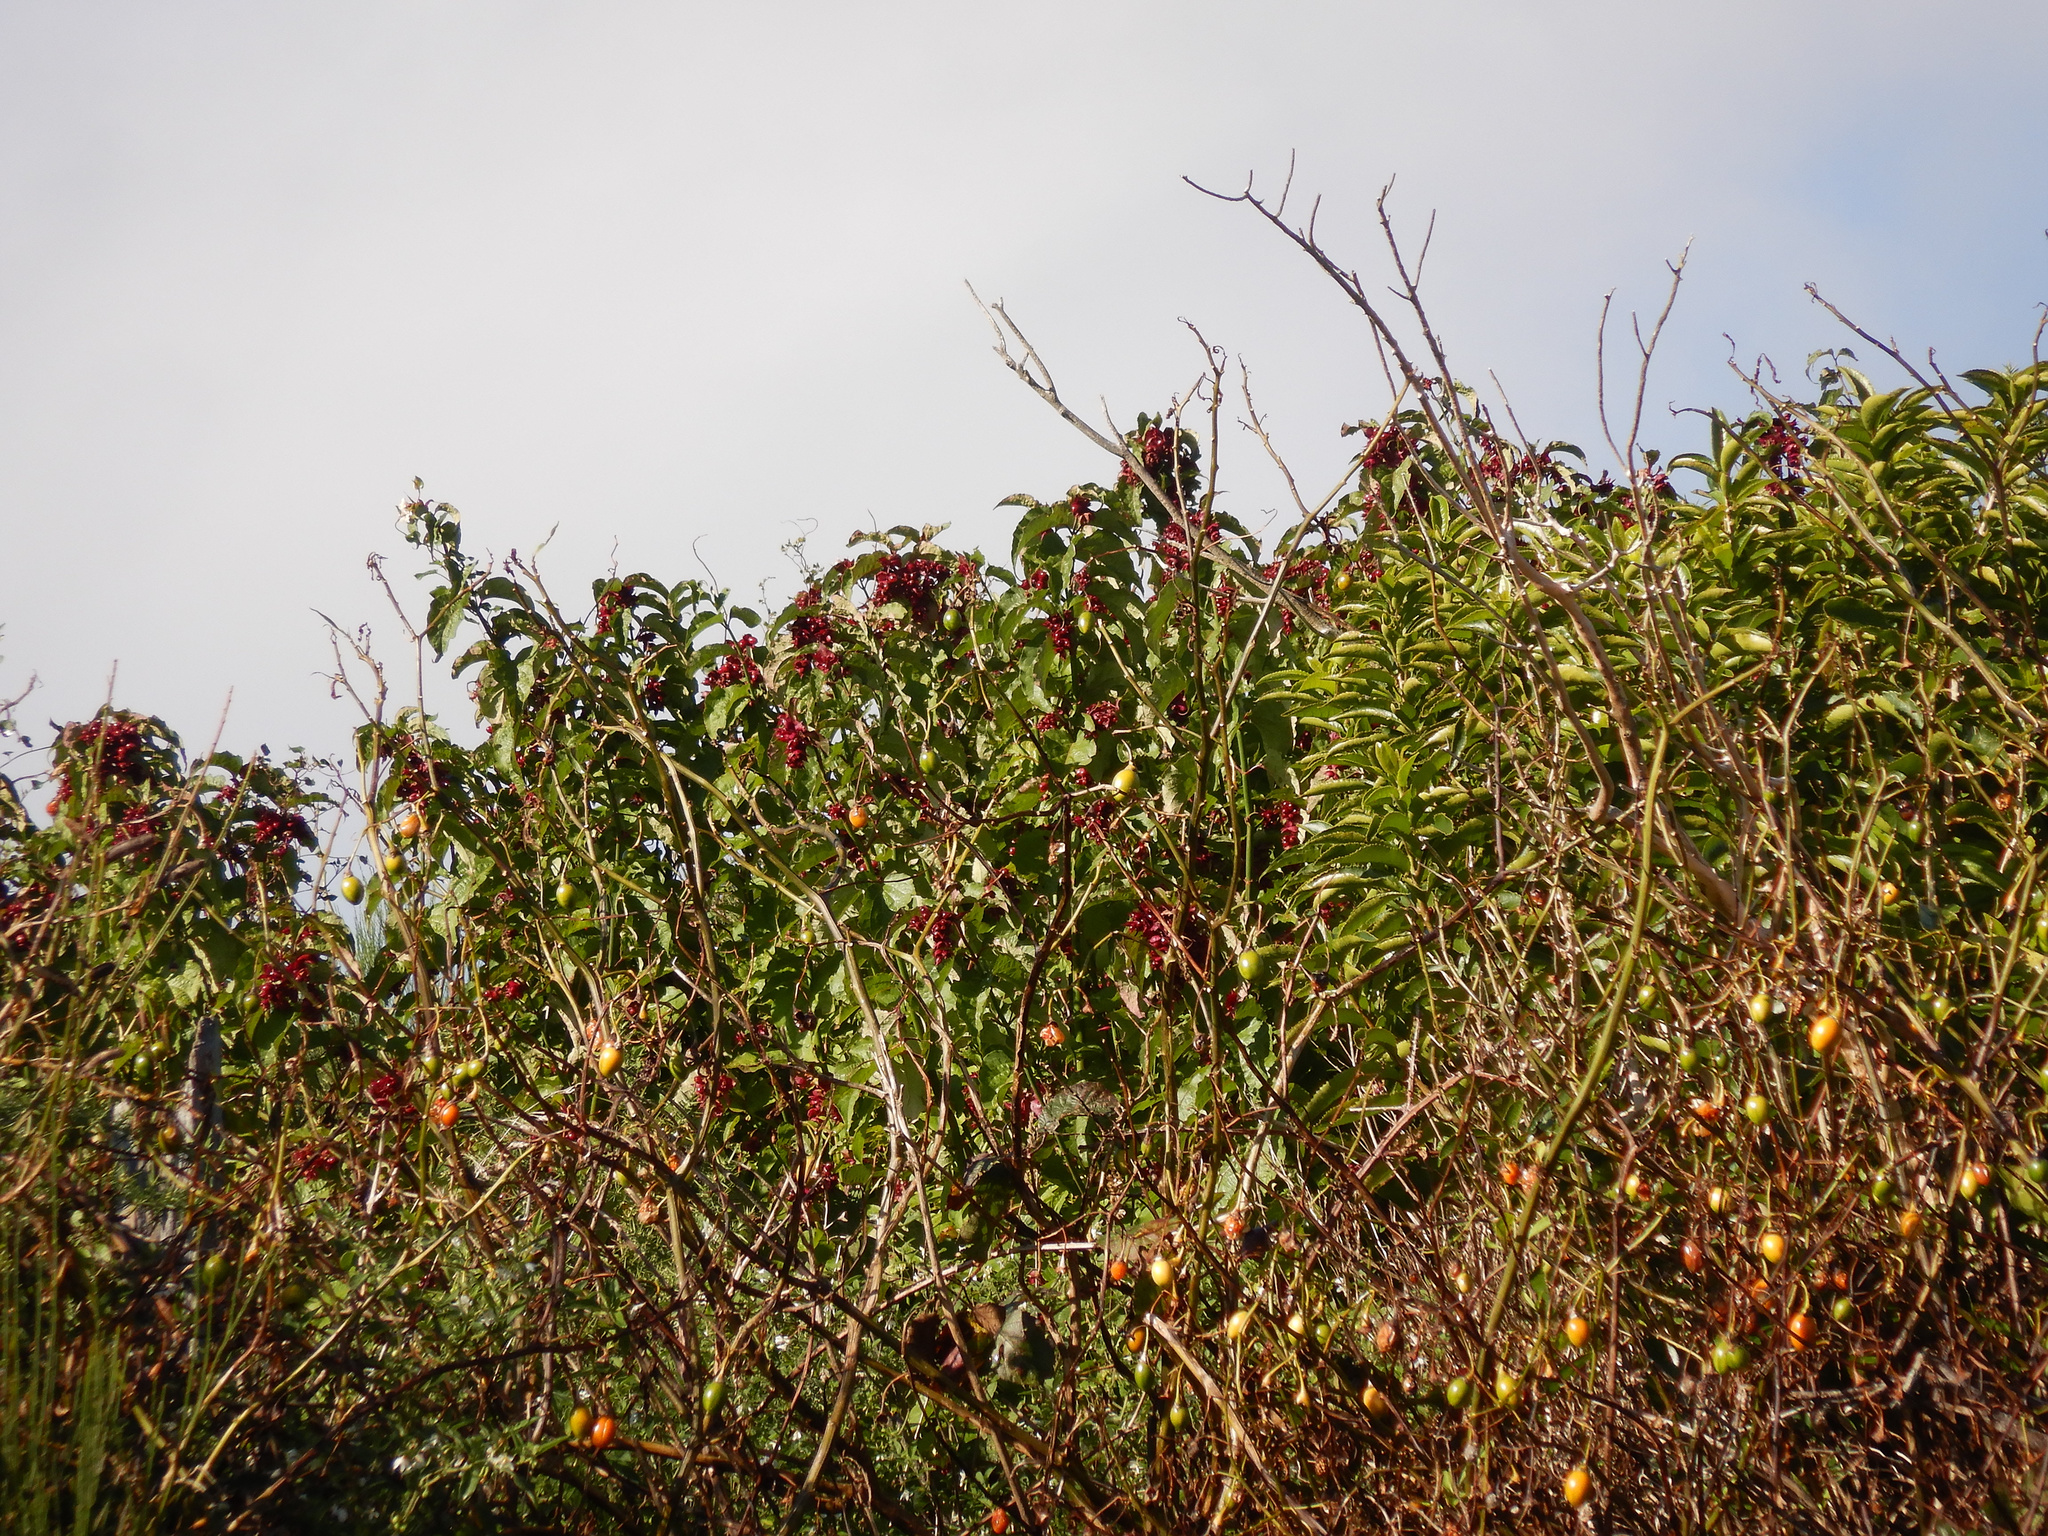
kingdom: Plantae
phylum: Tracheophyta
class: Magnoliopsida
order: Dipsacales
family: Caprifoliaceae
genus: Leycesteria
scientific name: Leycesteria formosa
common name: Himalayan honeysuckle
